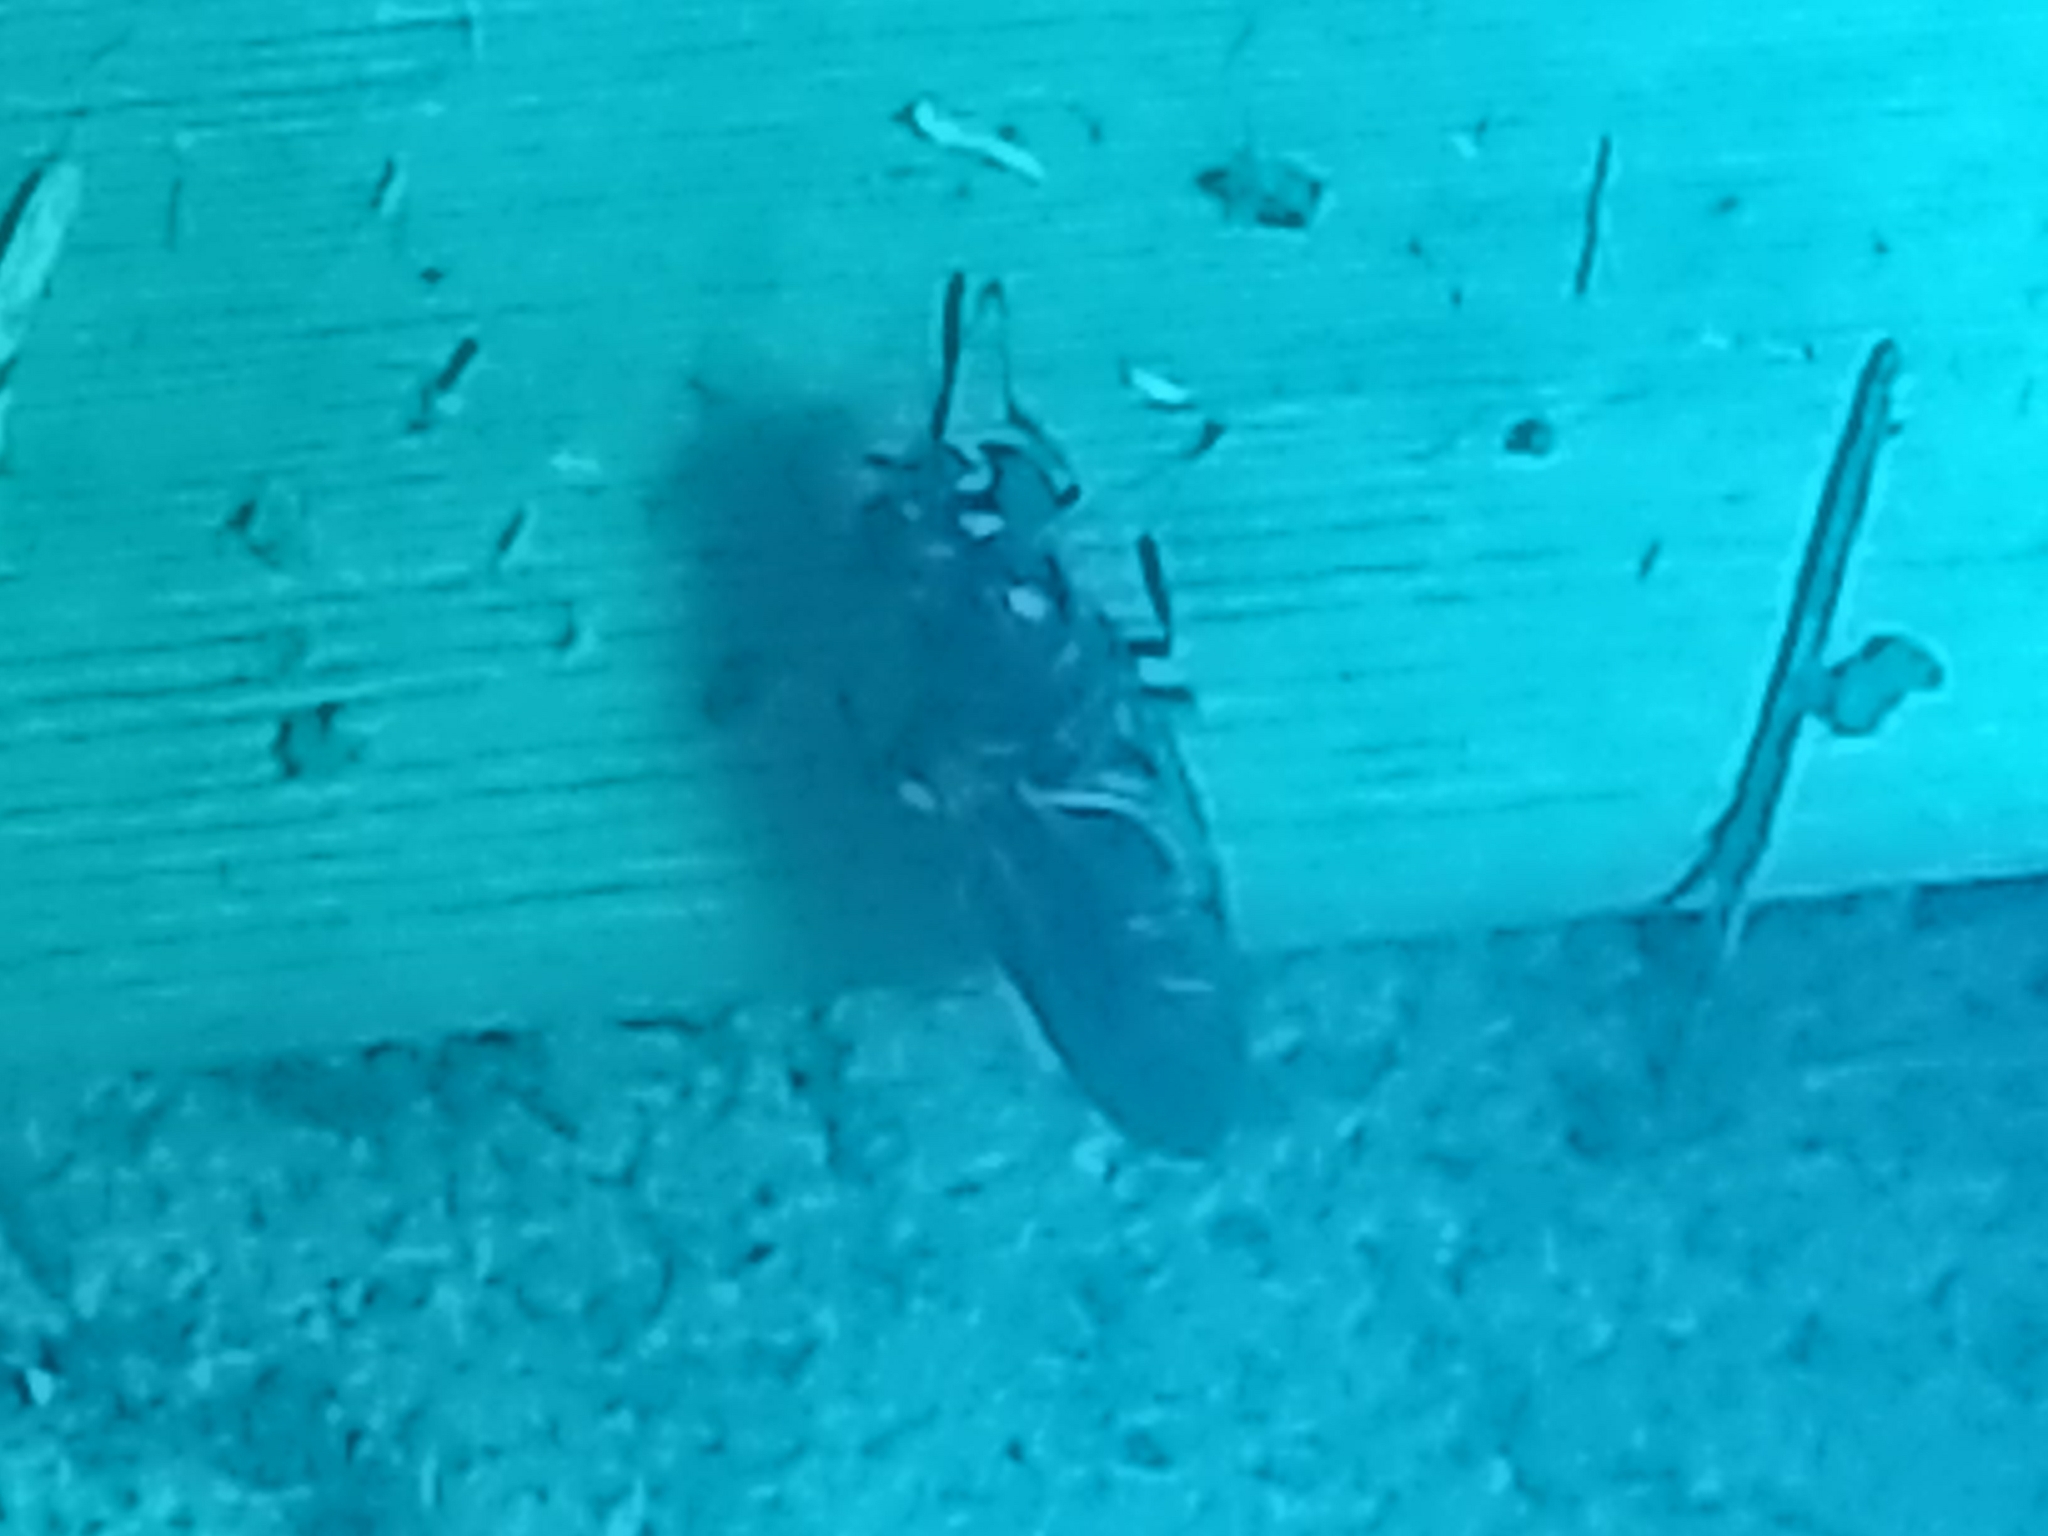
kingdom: Animalia
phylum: Arthropoda
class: Insecta
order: Diptera
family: Stratiomyidae
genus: Hermetia
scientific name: Hermetia illucens
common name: Black soldier fly
